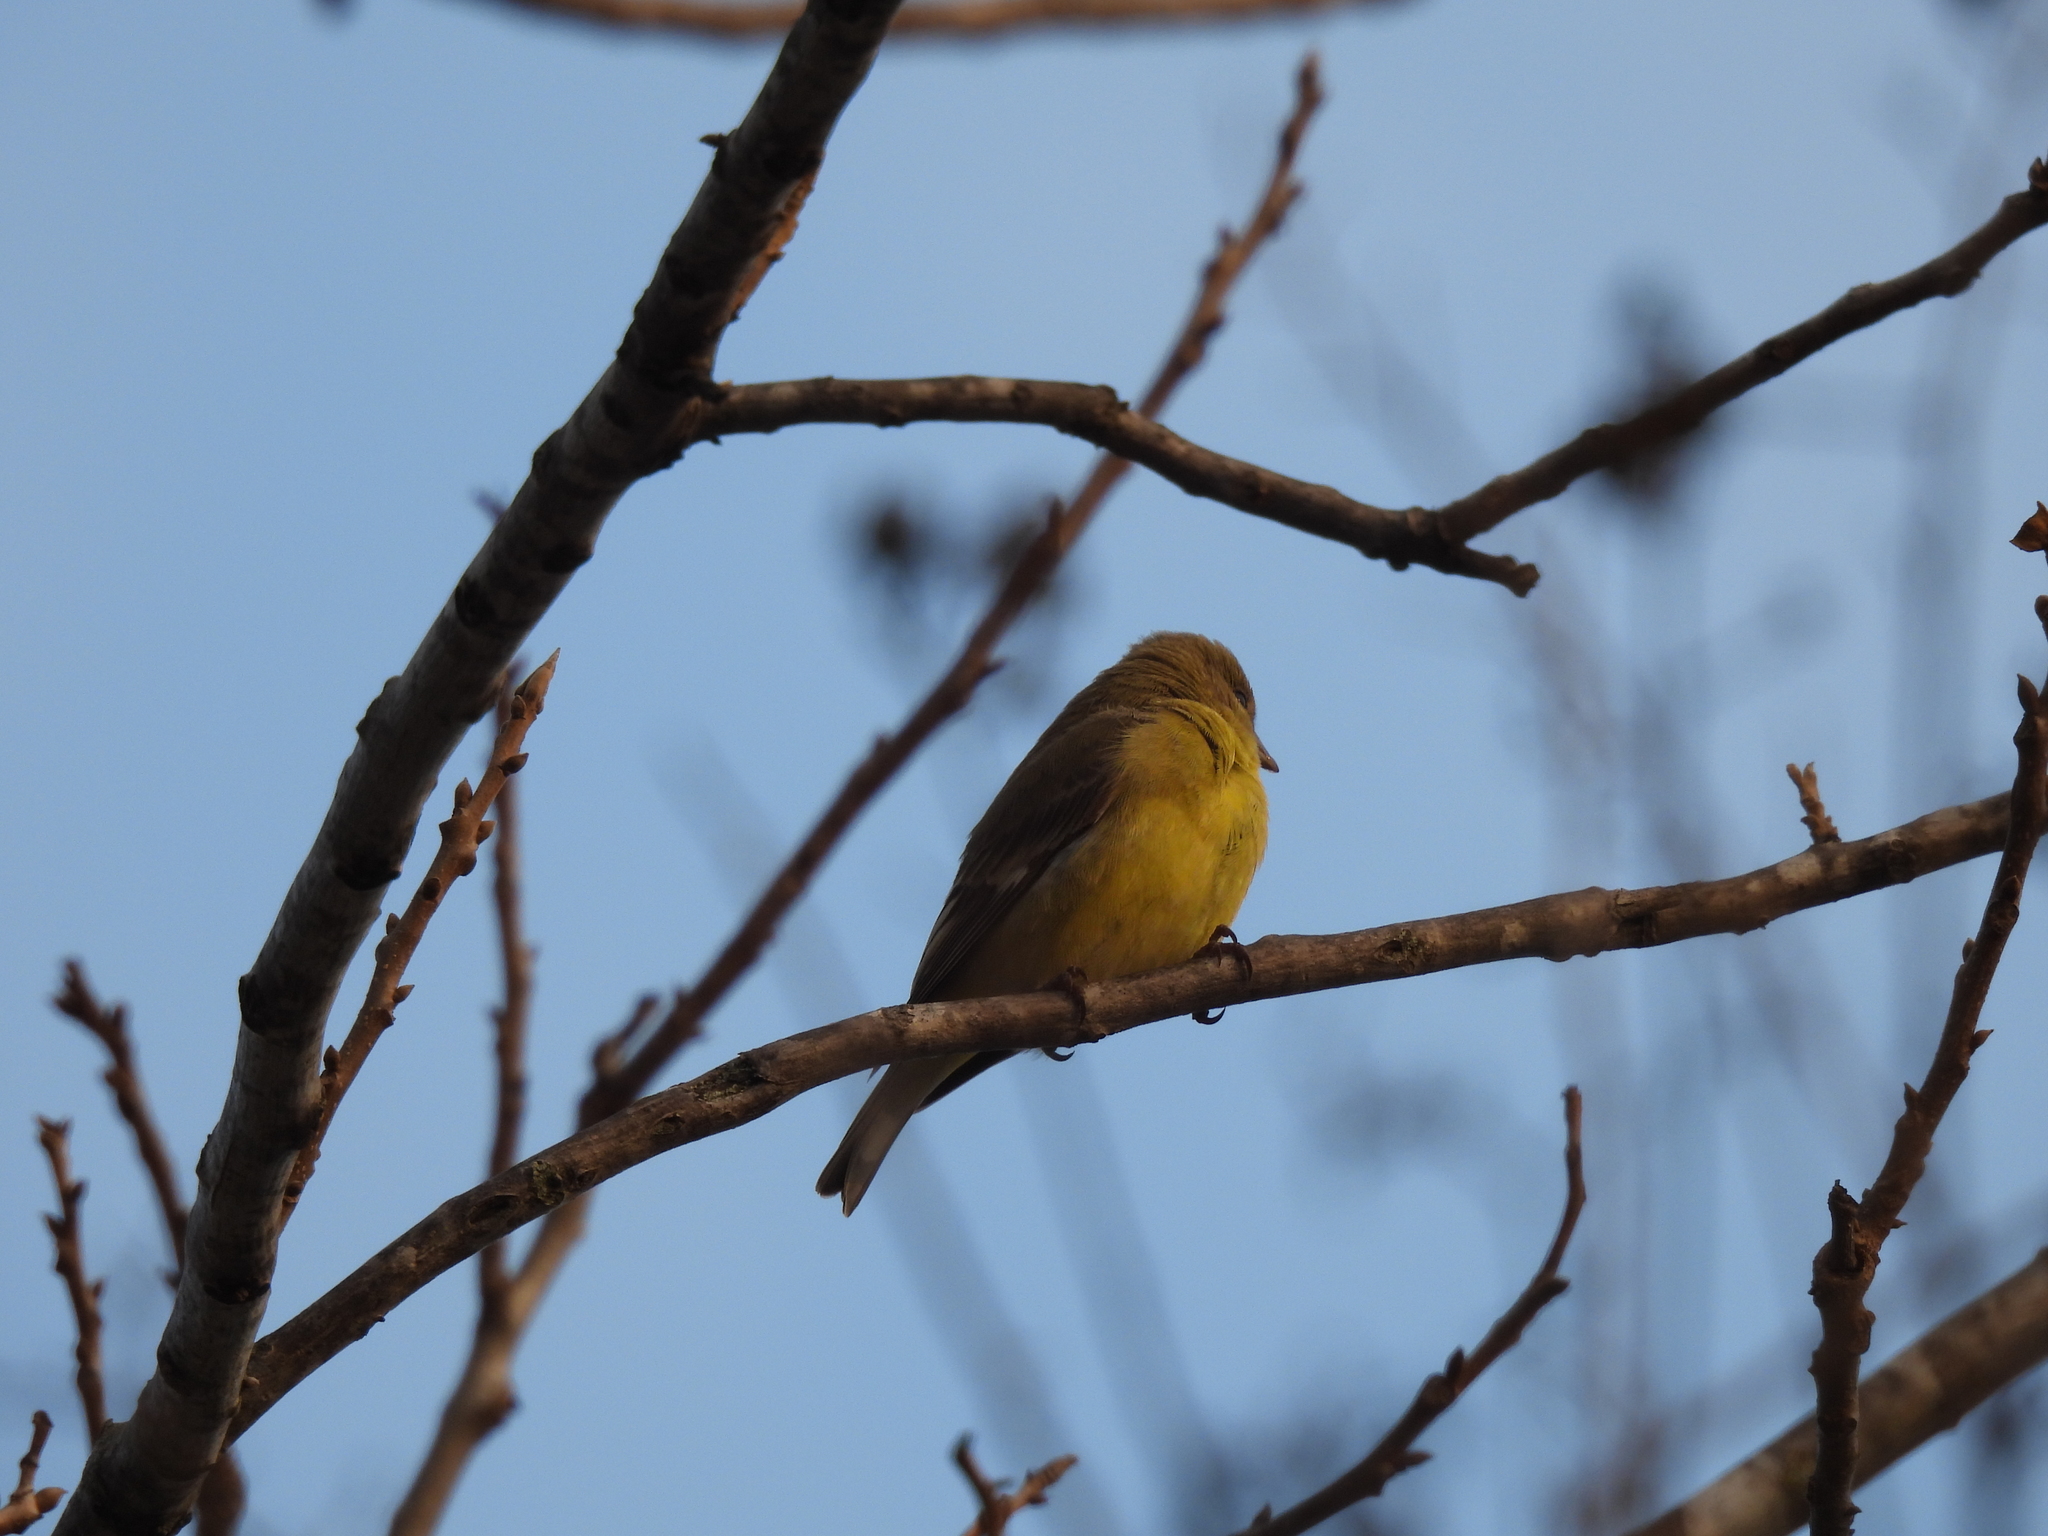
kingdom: Animalia
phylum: Chordata
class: Aves
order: Passeriformes
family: Fringillidae
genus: Spinus
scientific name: Spinus psaltria
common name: Lesser goldfinch
